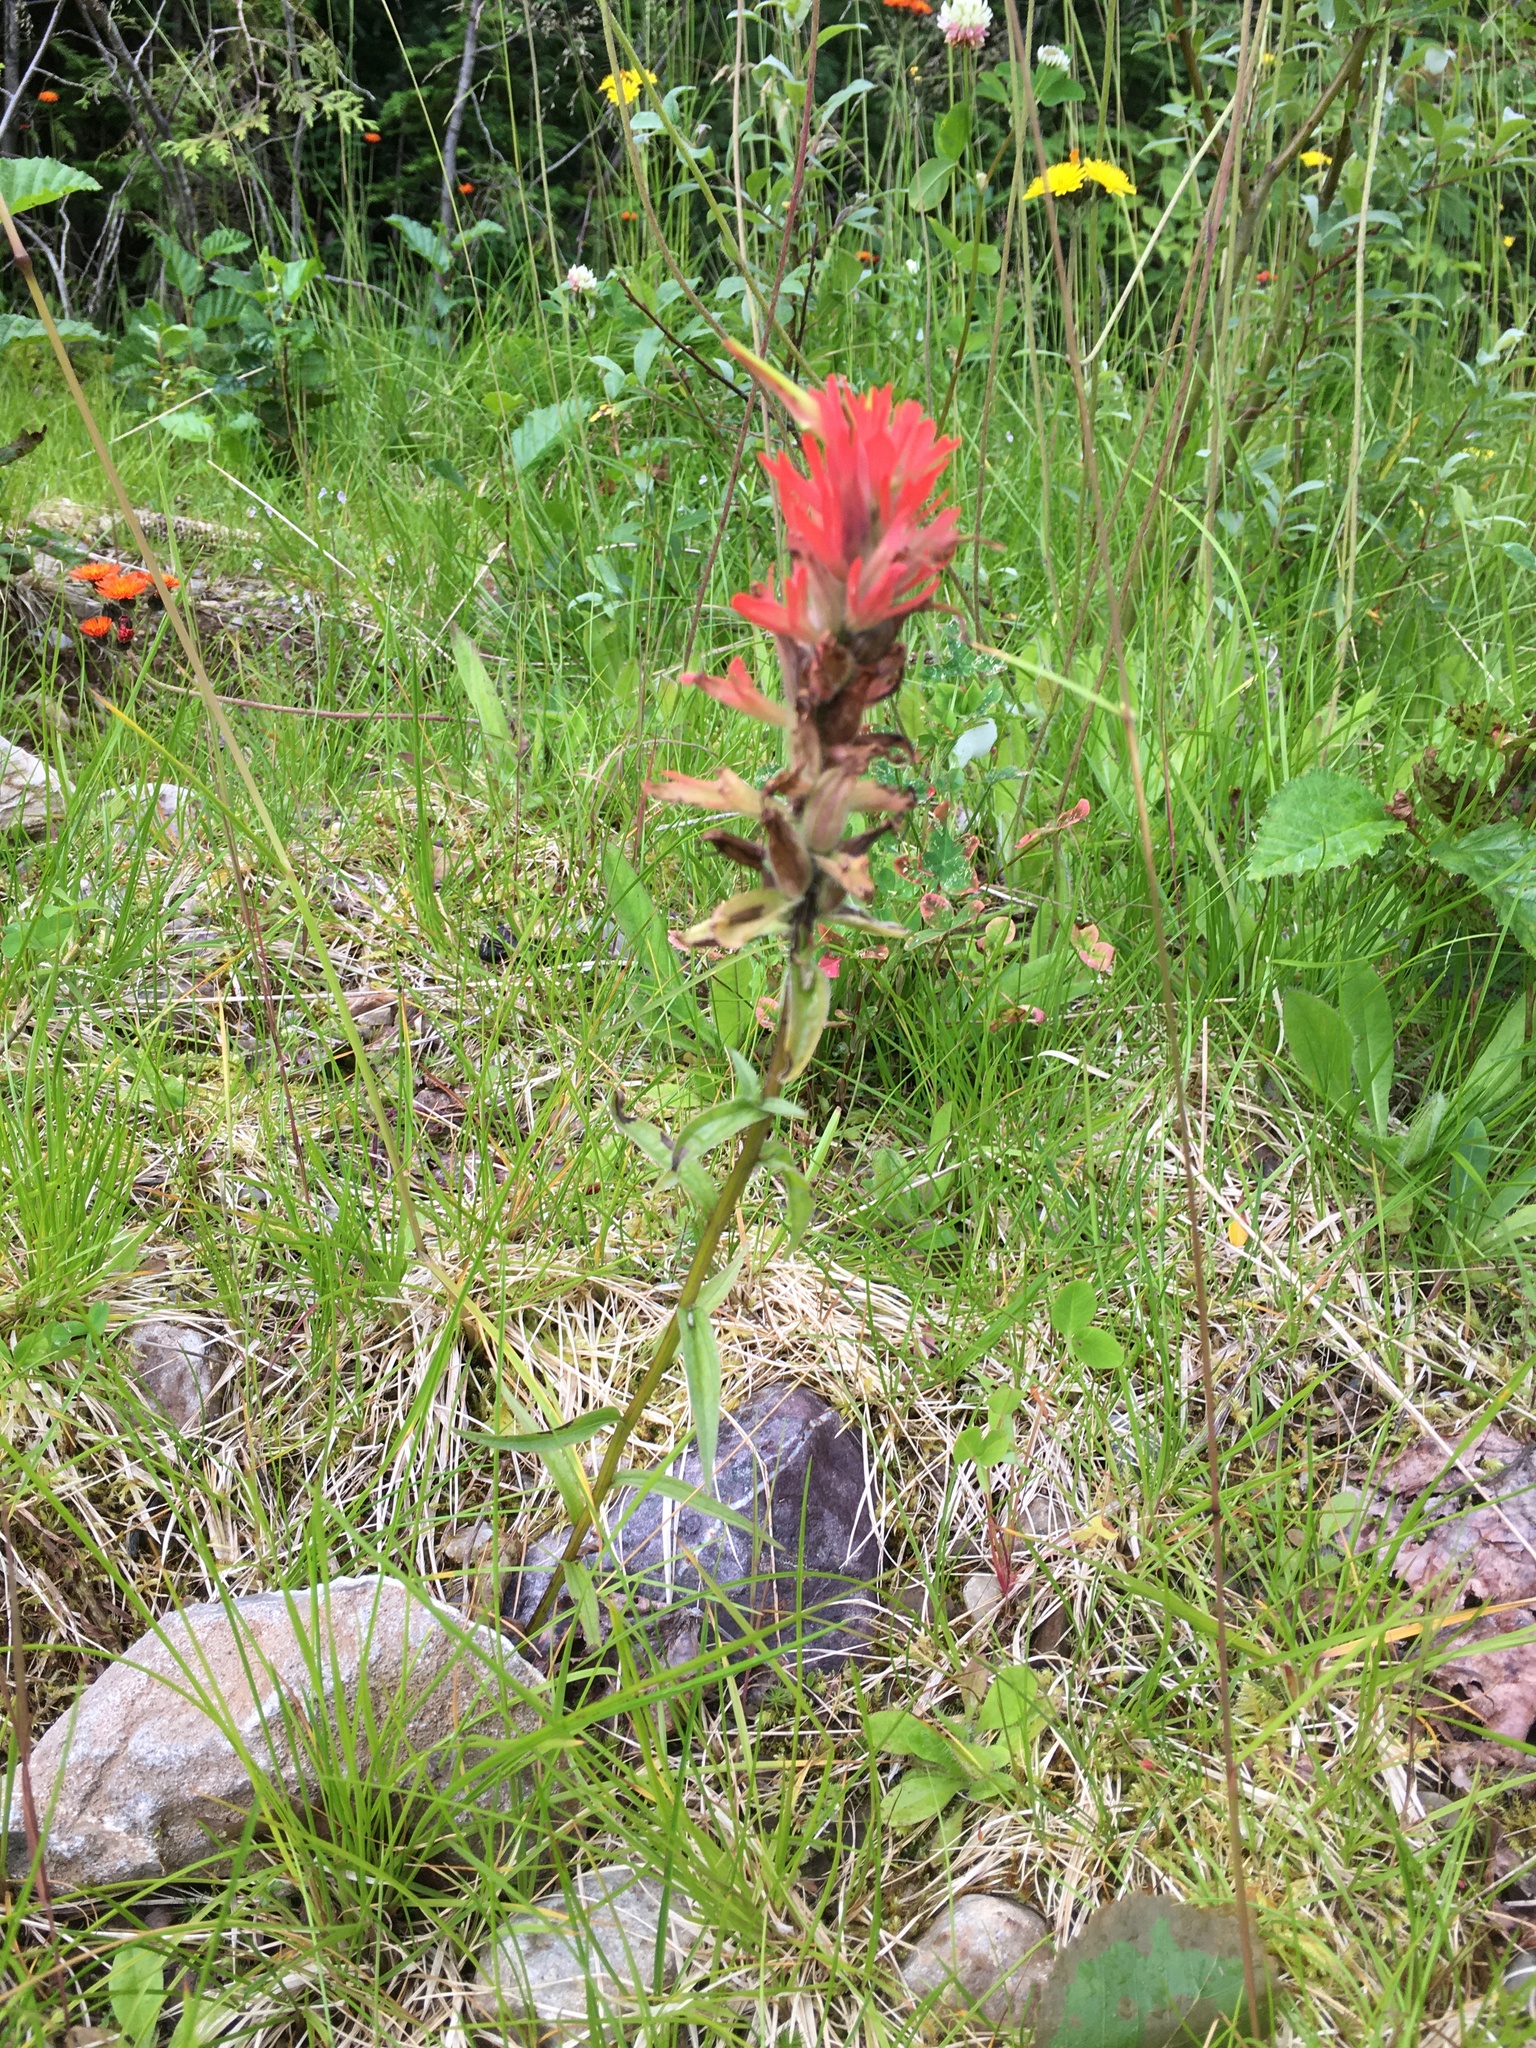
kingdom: Plantae
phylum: Tracheophyta
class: Magnoliopsida
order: Lamiales
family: Orobanchaceae
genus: Castilleja
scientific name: Castilleja miniata
